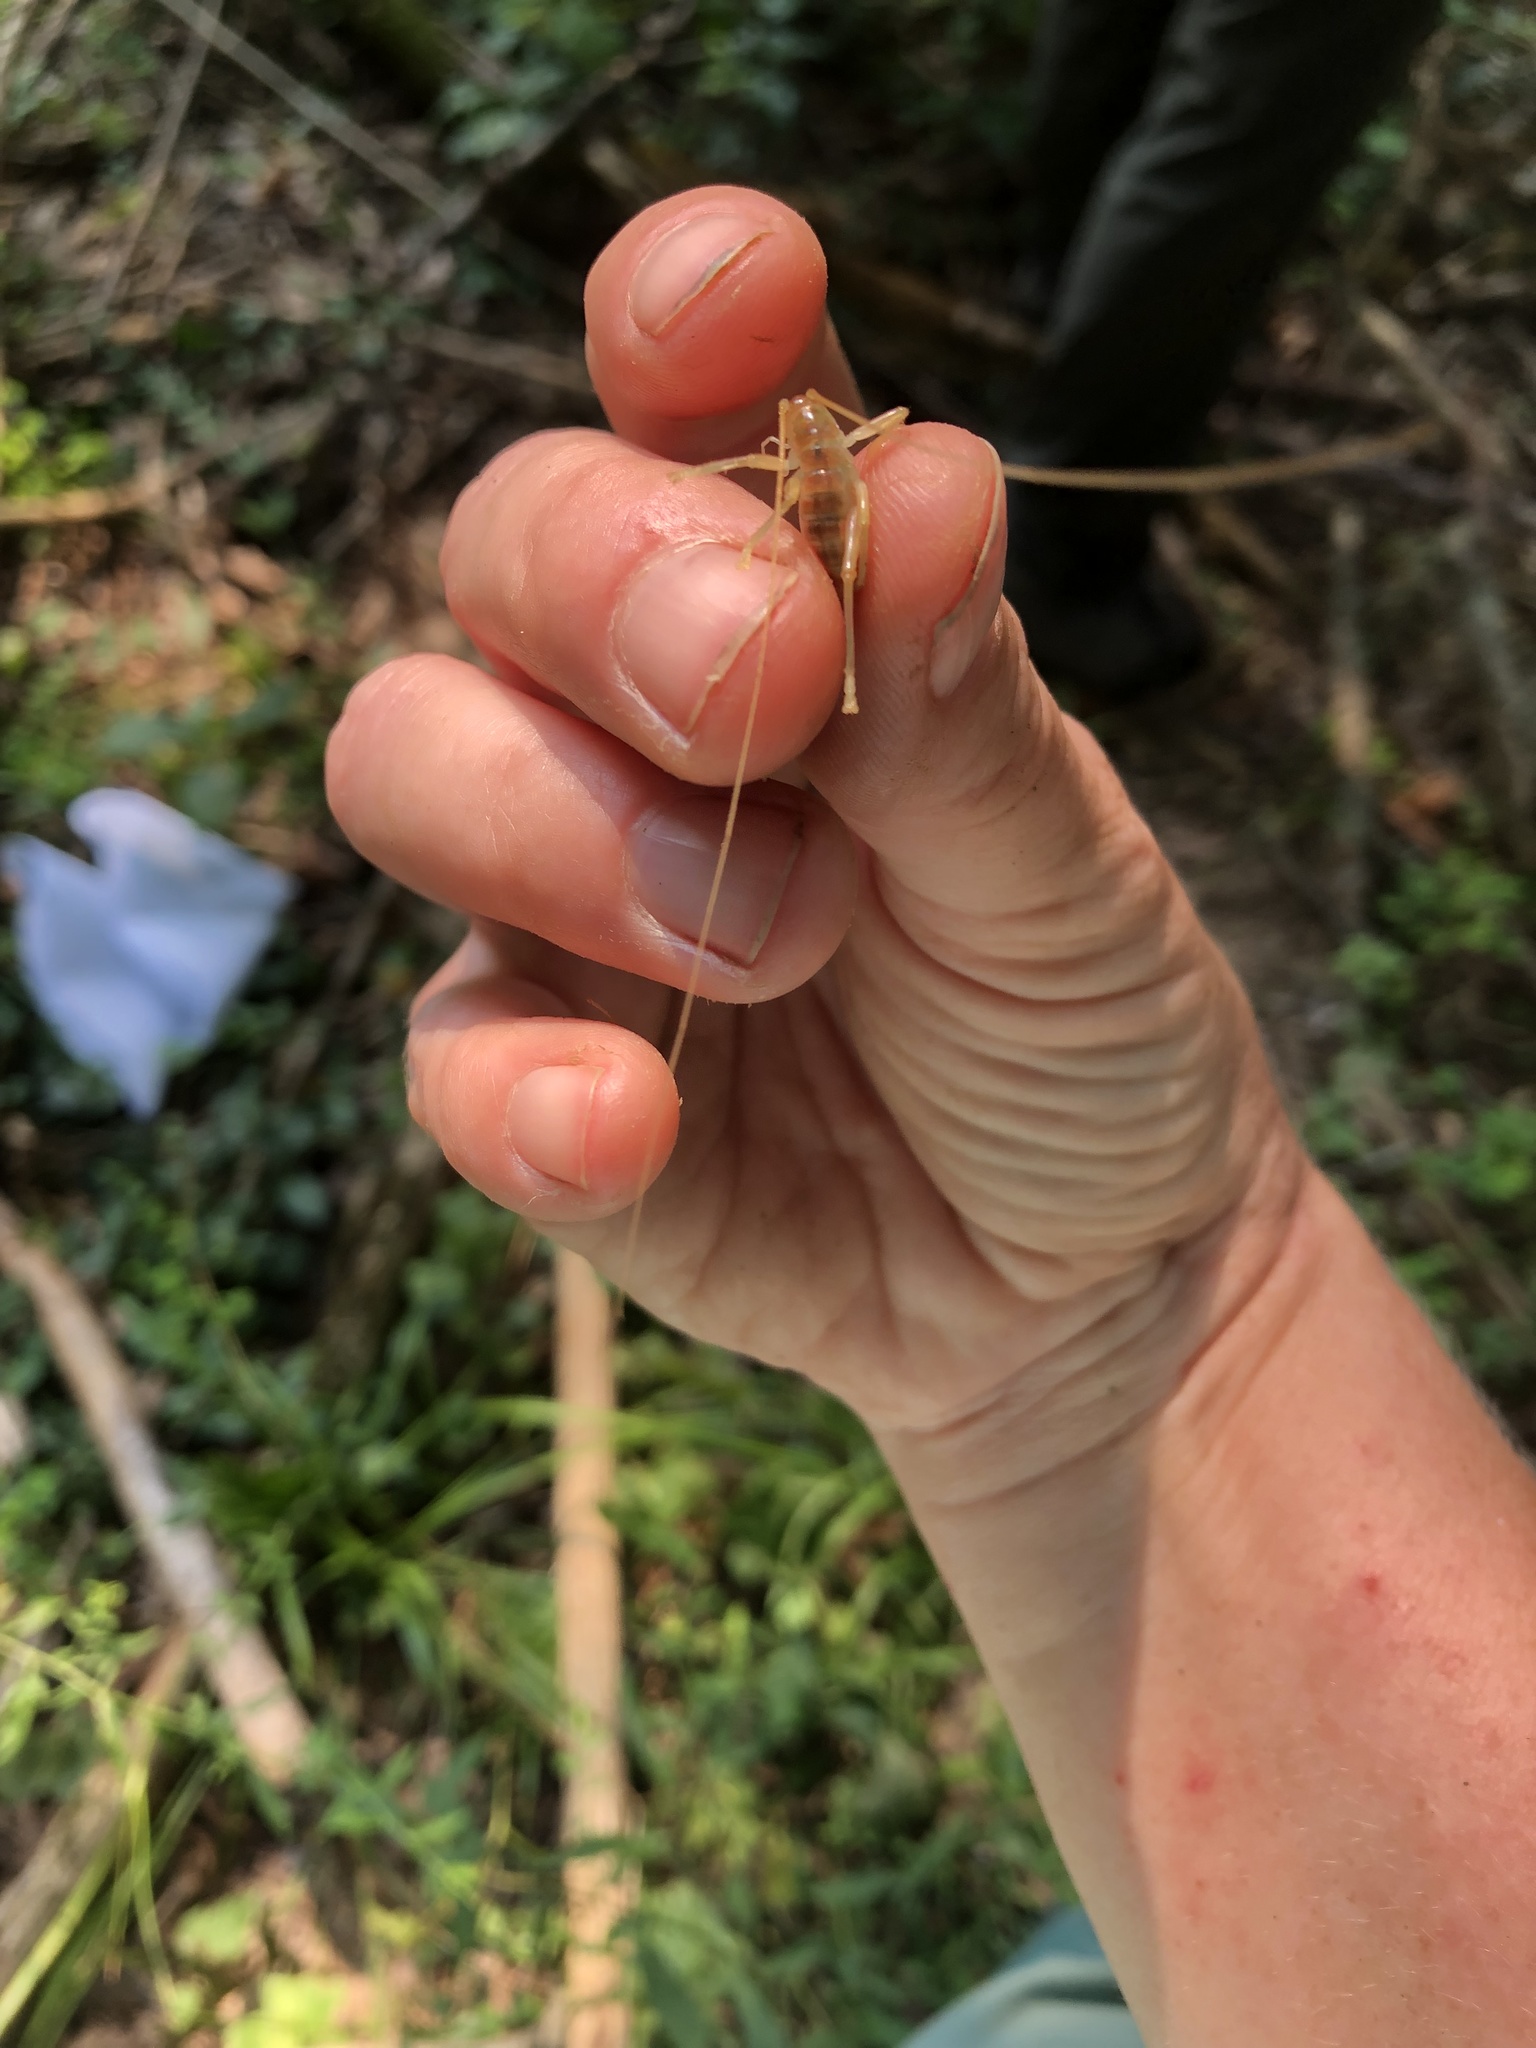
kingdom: Animalia
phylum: Arthropoda
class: Insecta
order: Orthoptera
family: Gryllacrididae
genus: Camptonotus
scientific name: Camptonotus carolinensis
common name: Carolina leaf-roller
